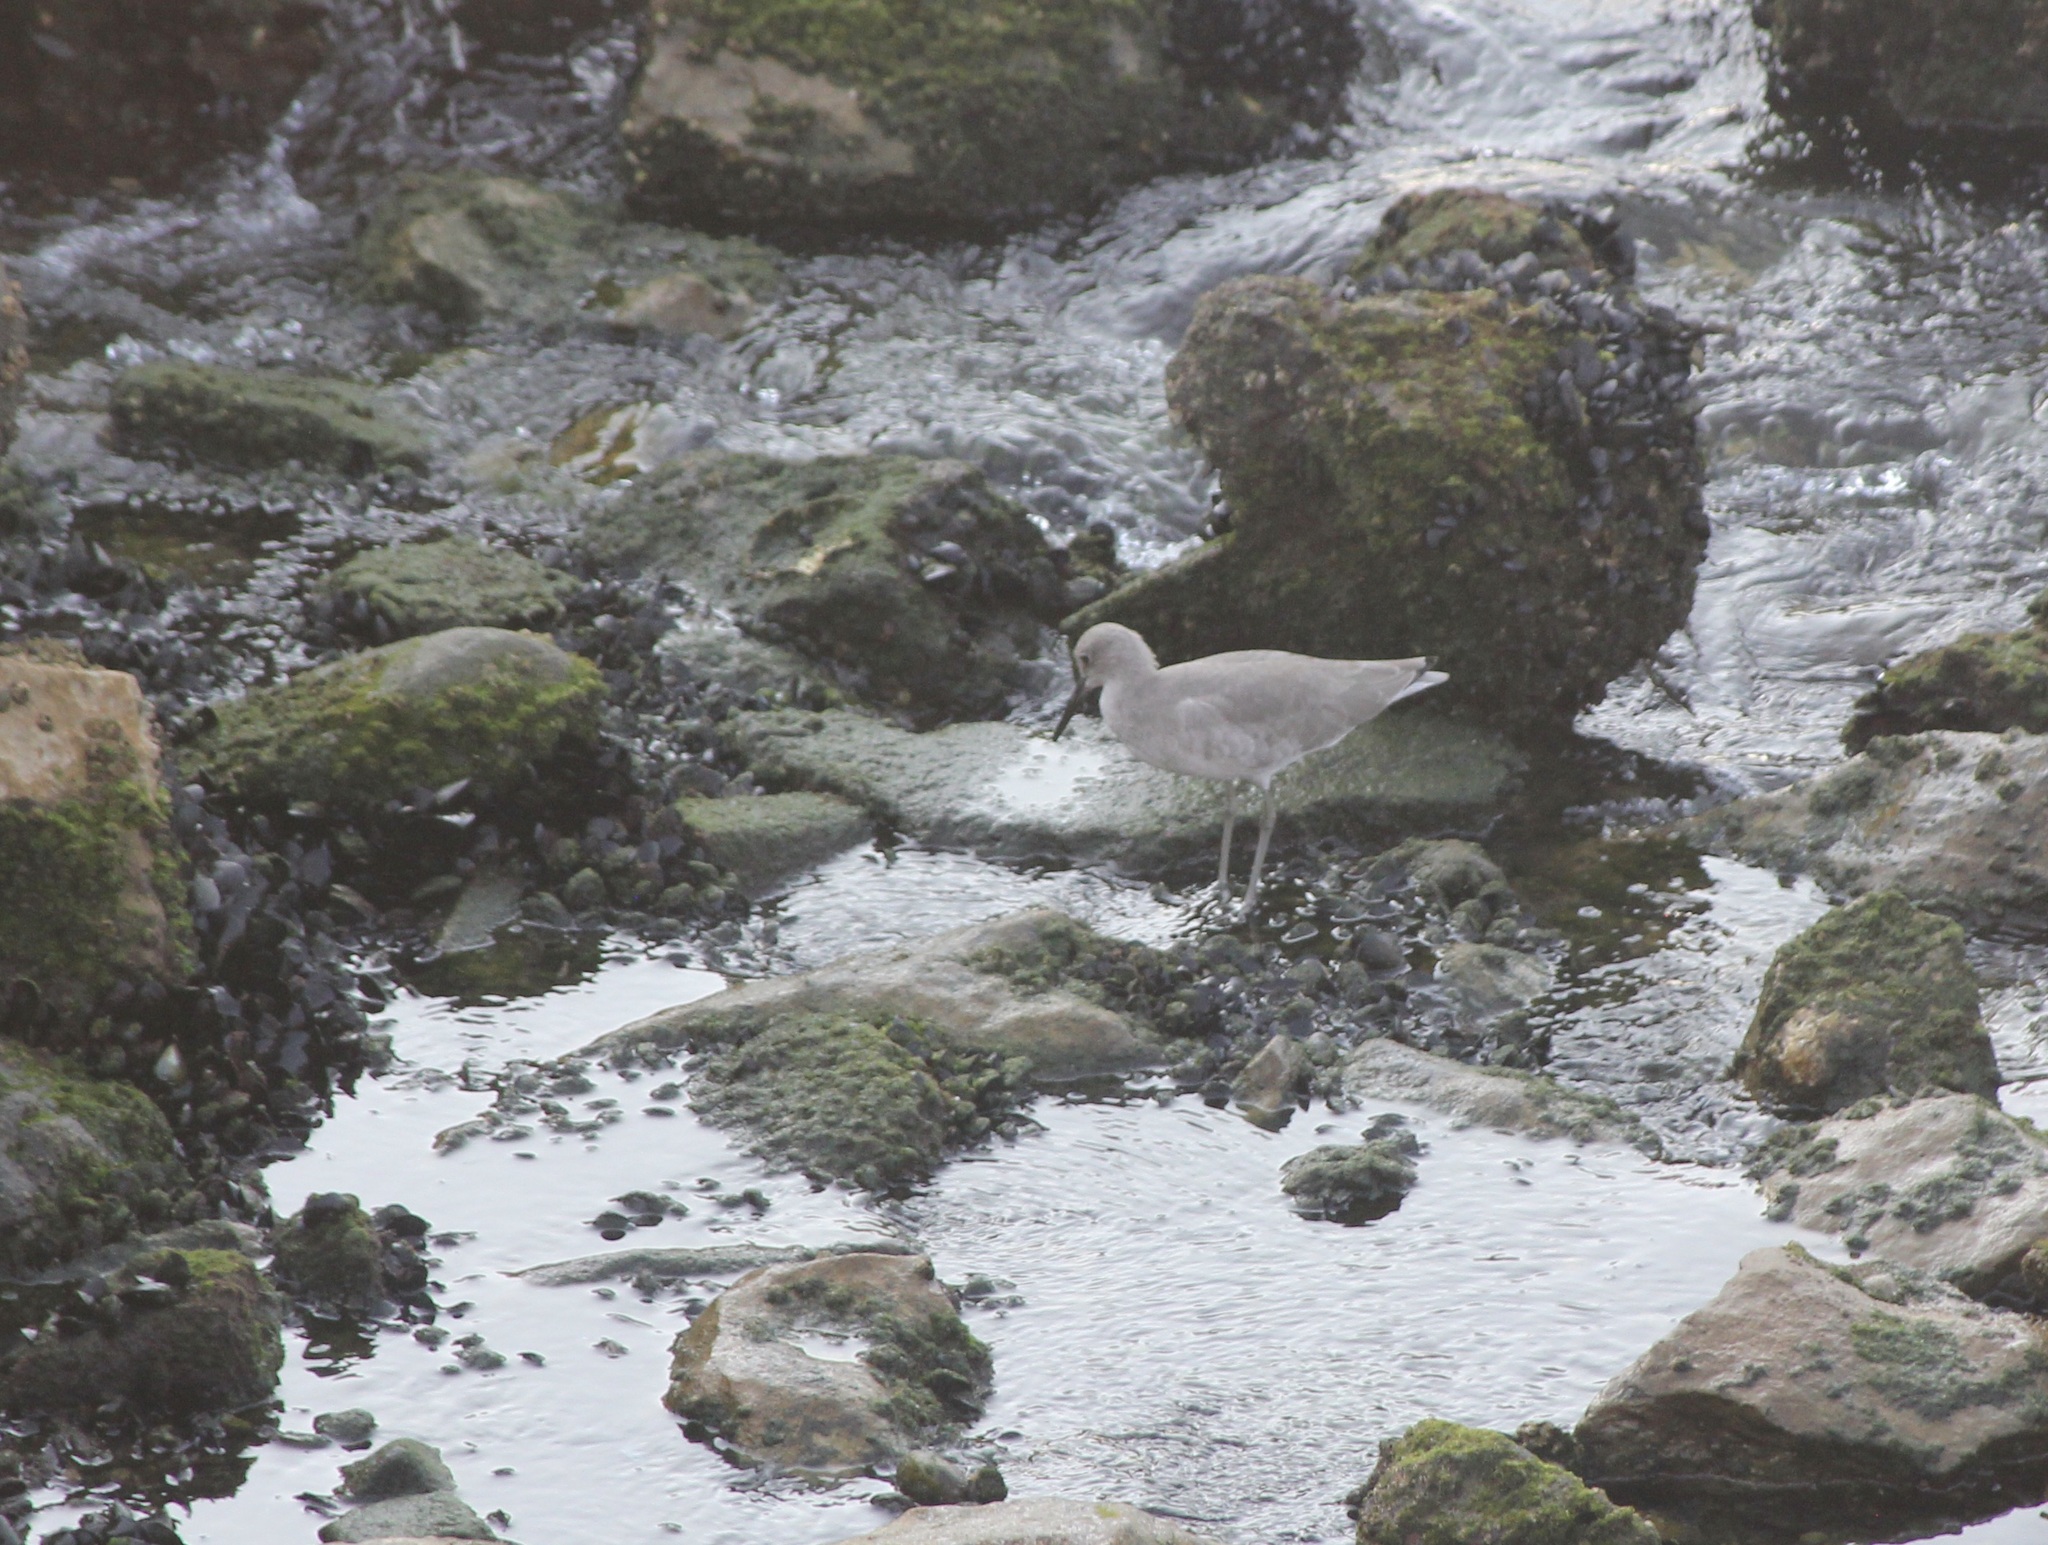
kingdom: Animalia
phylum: Chordata
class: Aves
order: Charadriiformes
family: Scolopacidae
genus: Tringa
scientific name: Tringa semipalmata
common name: Willet
